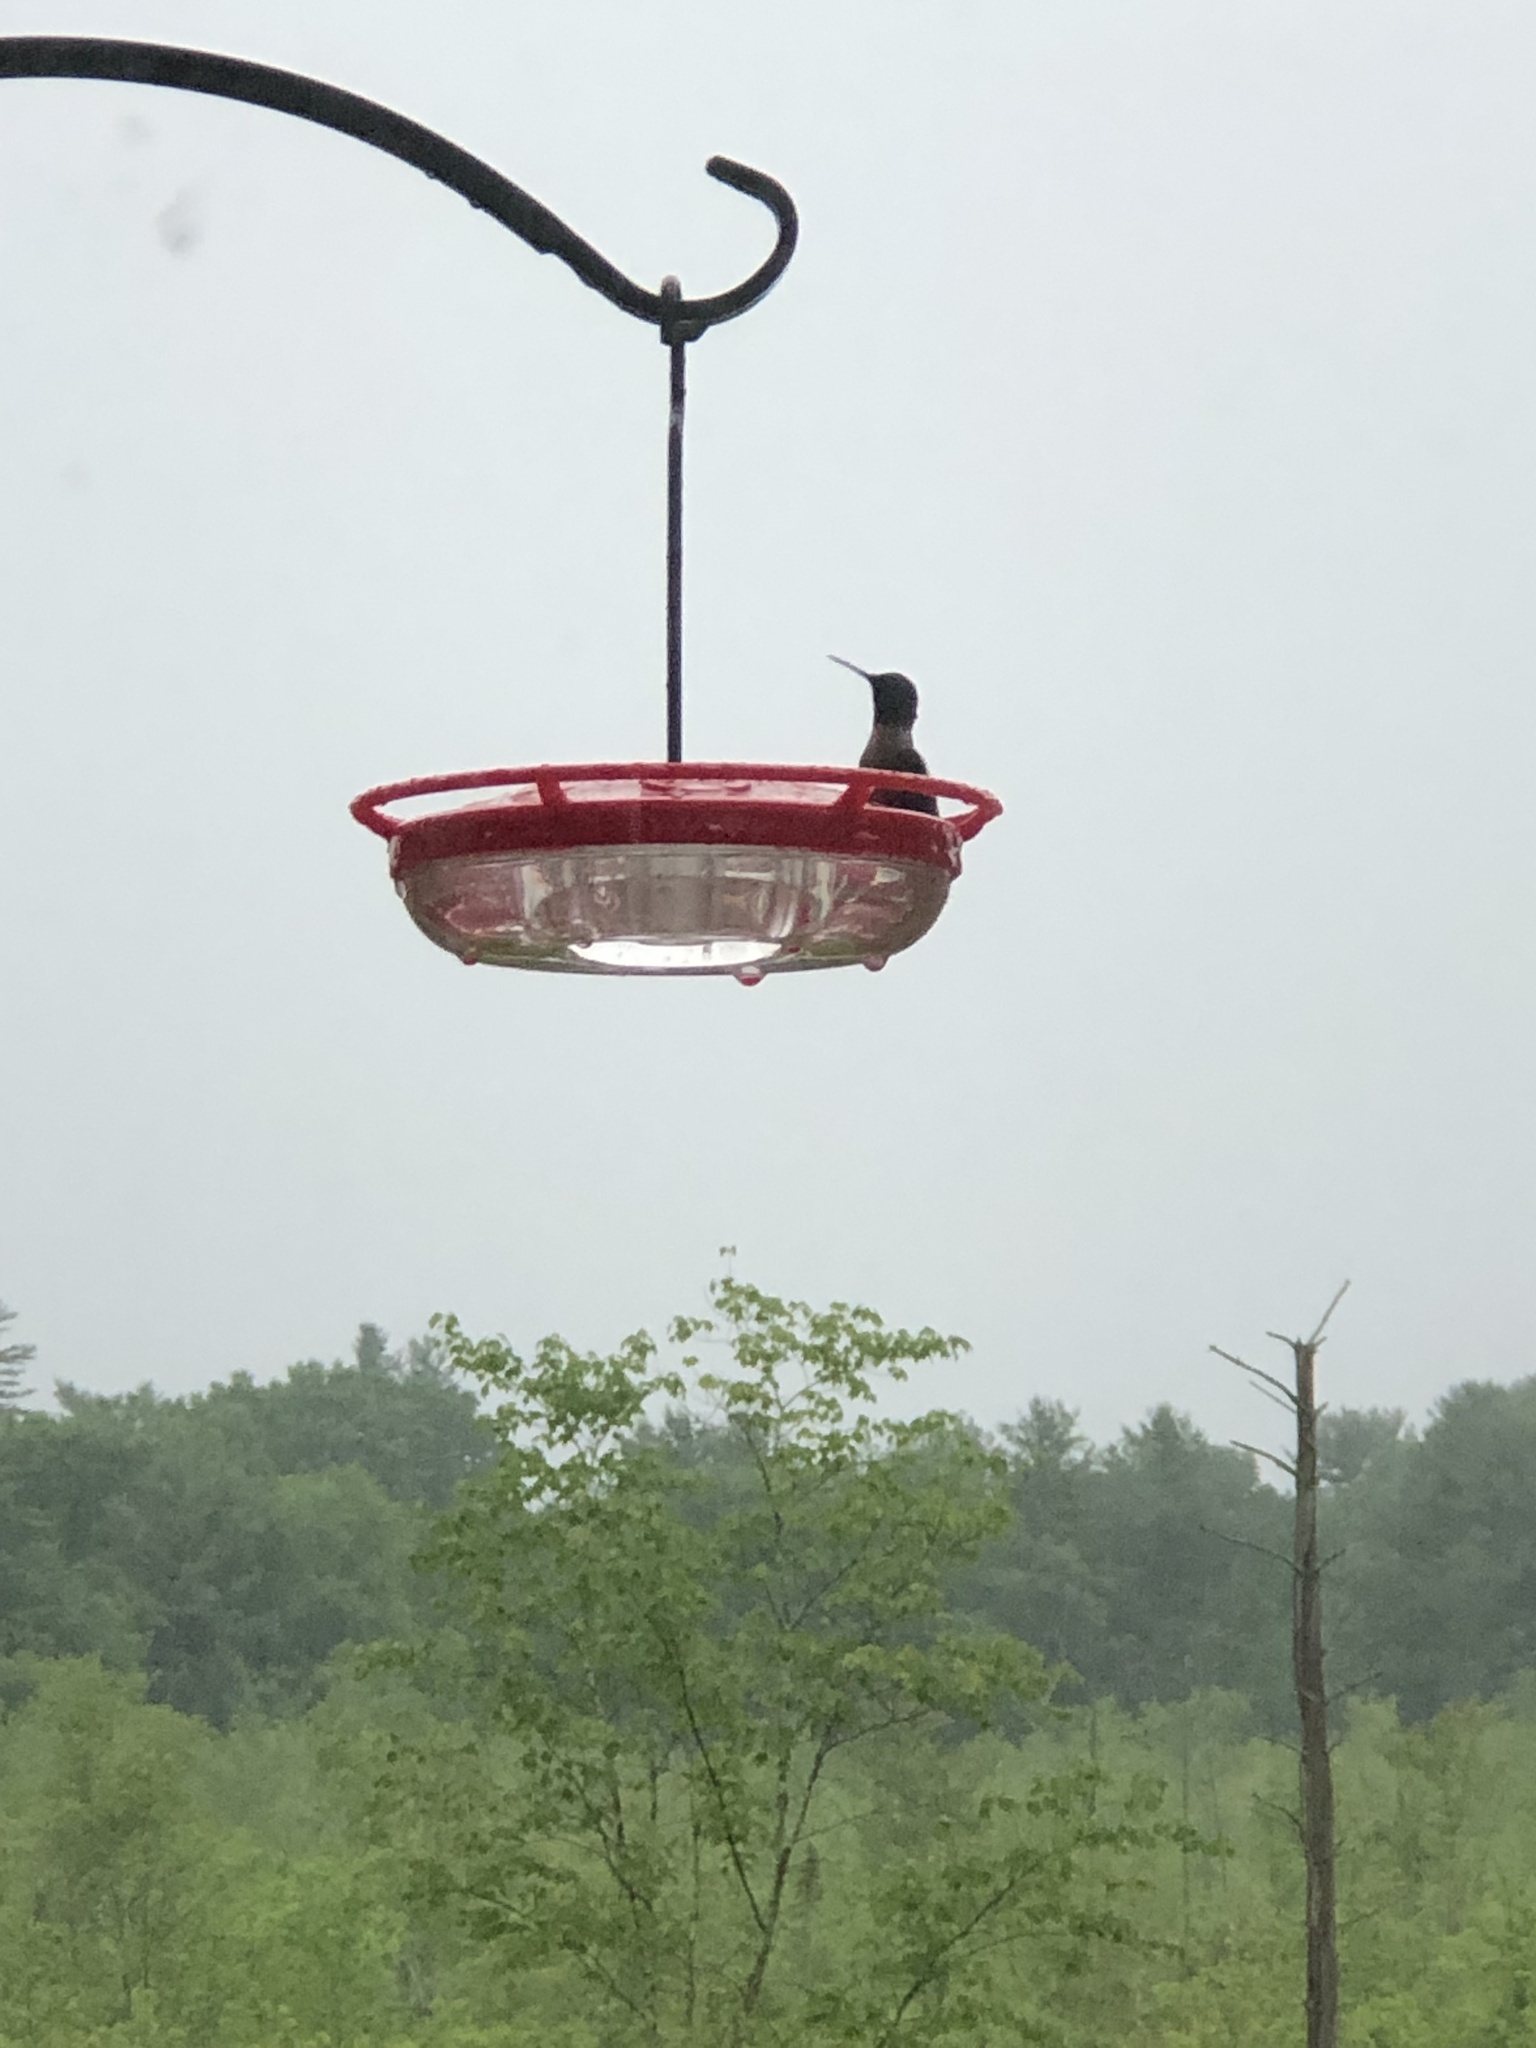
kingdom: Animalia
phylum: Chordata
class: Aves
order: Apodiformes
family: Trochilidae
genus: Archilochus
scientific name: Archilochus colubris
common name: Ruby-throated hummingbird
